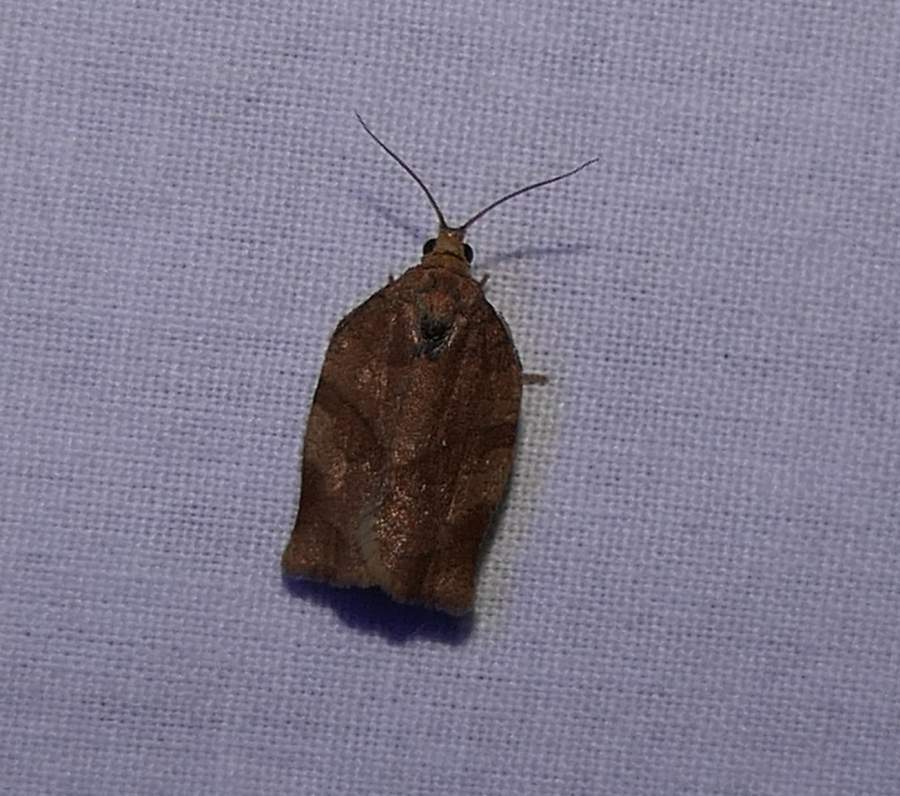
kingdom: Animalia
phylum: Arthropoda
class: Insecta
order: Lepidoptera
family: Tortricidae
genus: Choristoneura
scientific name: Choristoneura rosaceana
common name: Oblique-banded leafroller moth
